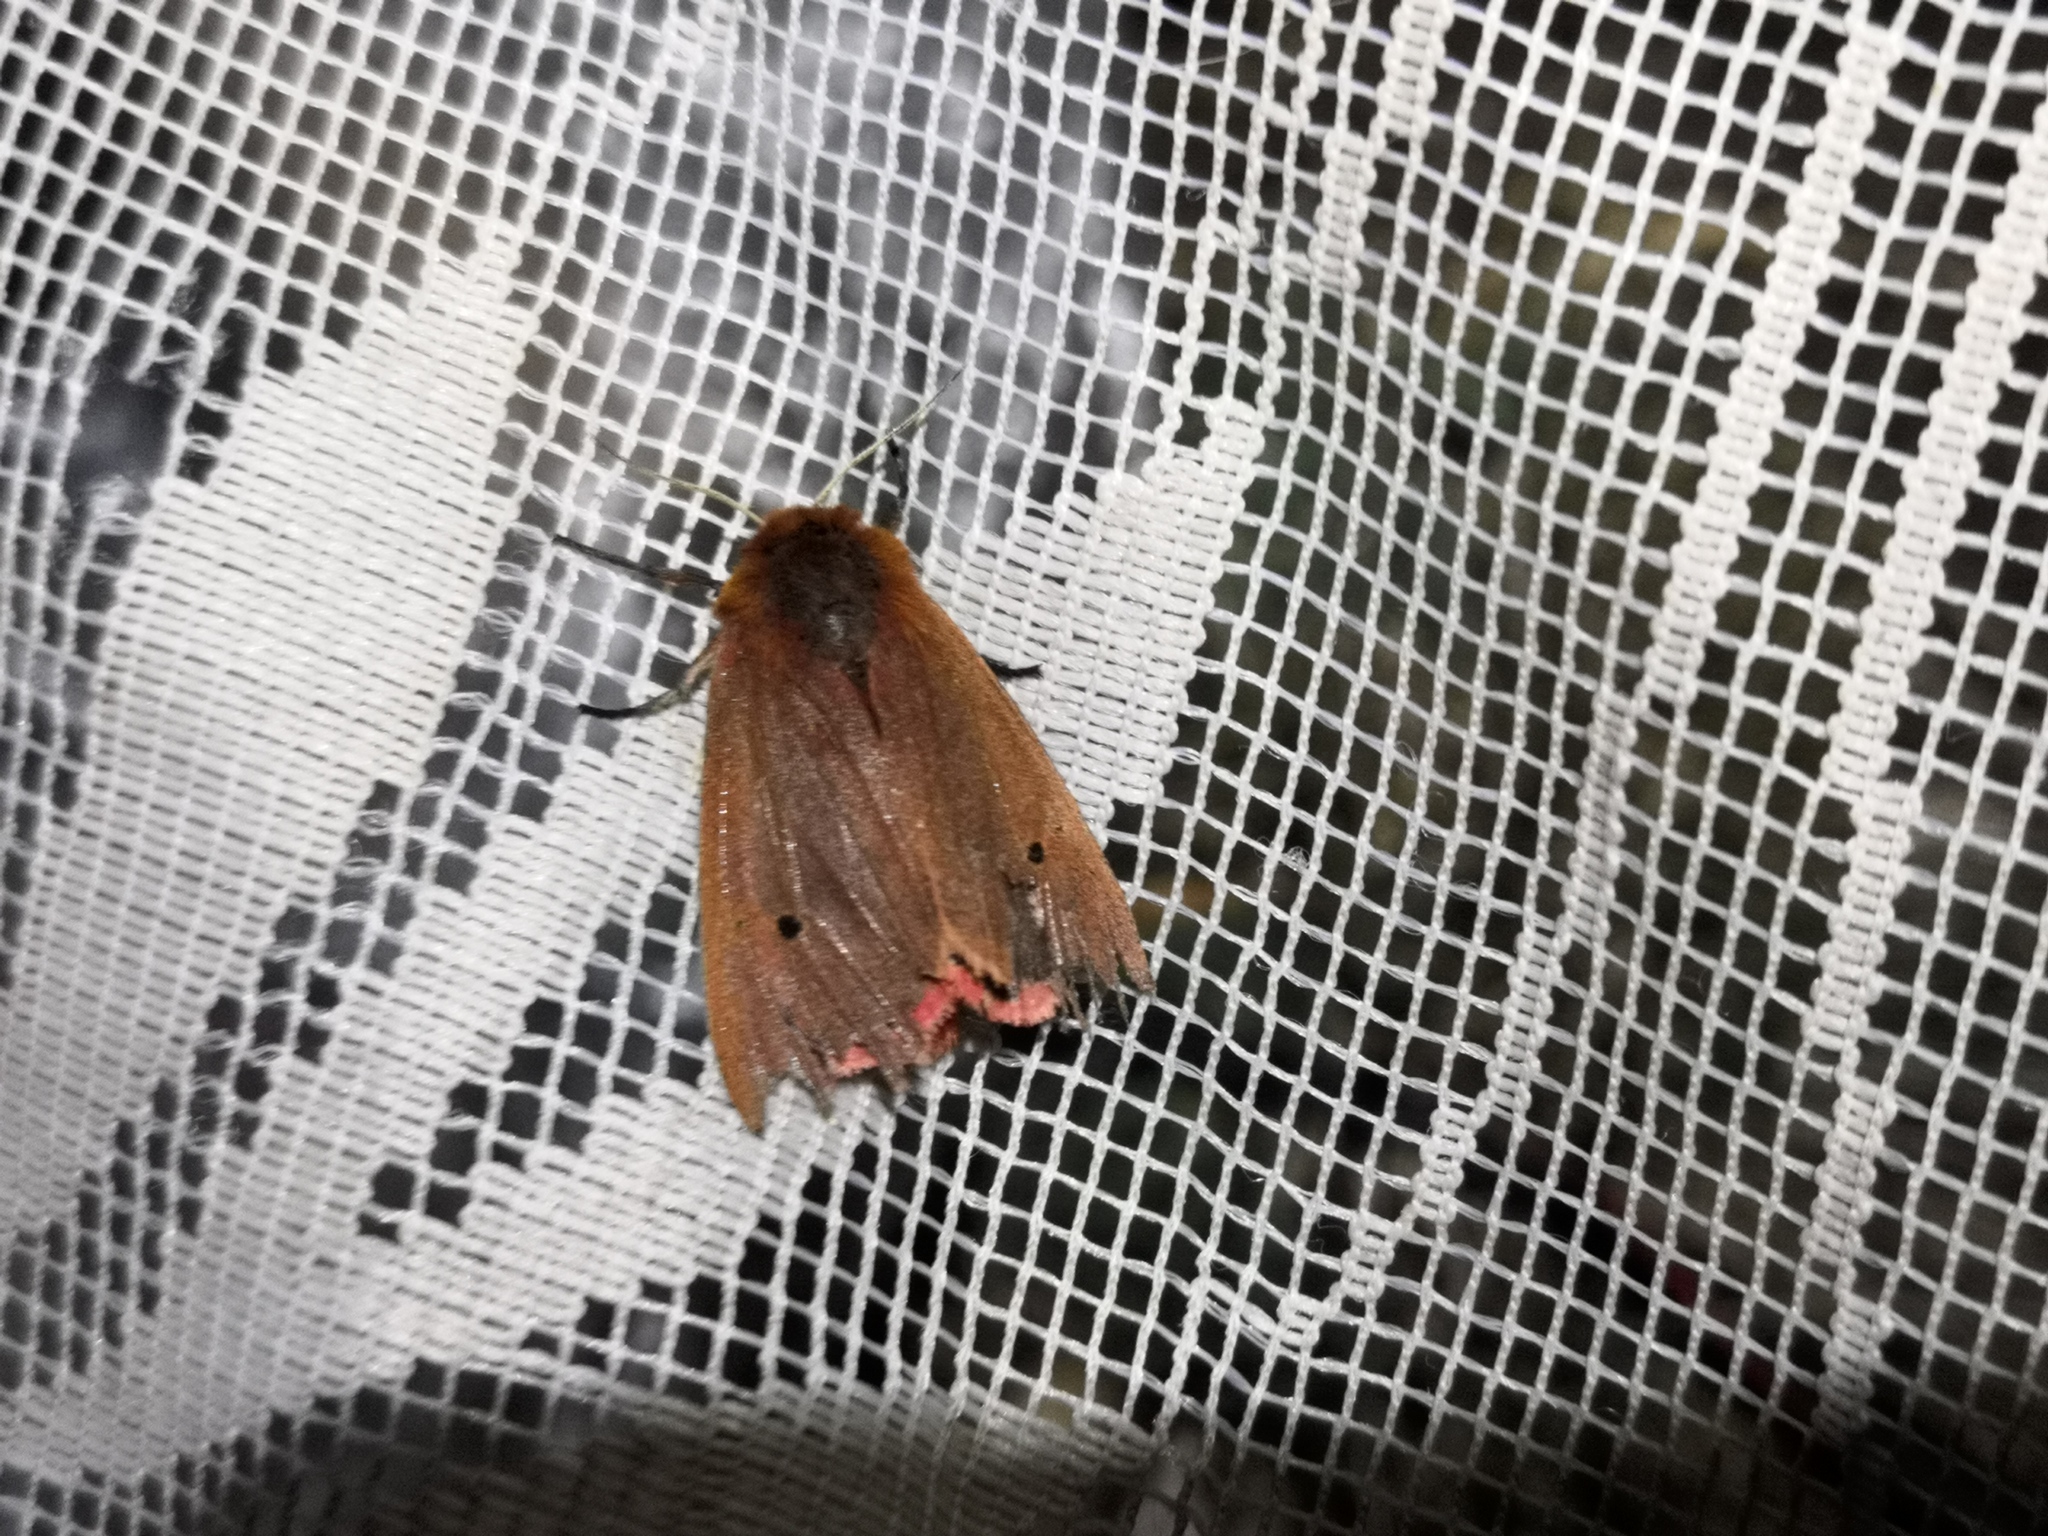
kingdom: Animalia
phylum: Arthropoda
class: Insecta
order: Lepidoptera
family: Erebidae
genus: Phragmatobia
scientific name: Phragmatobia fuliginosa
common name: Ruby tiger
